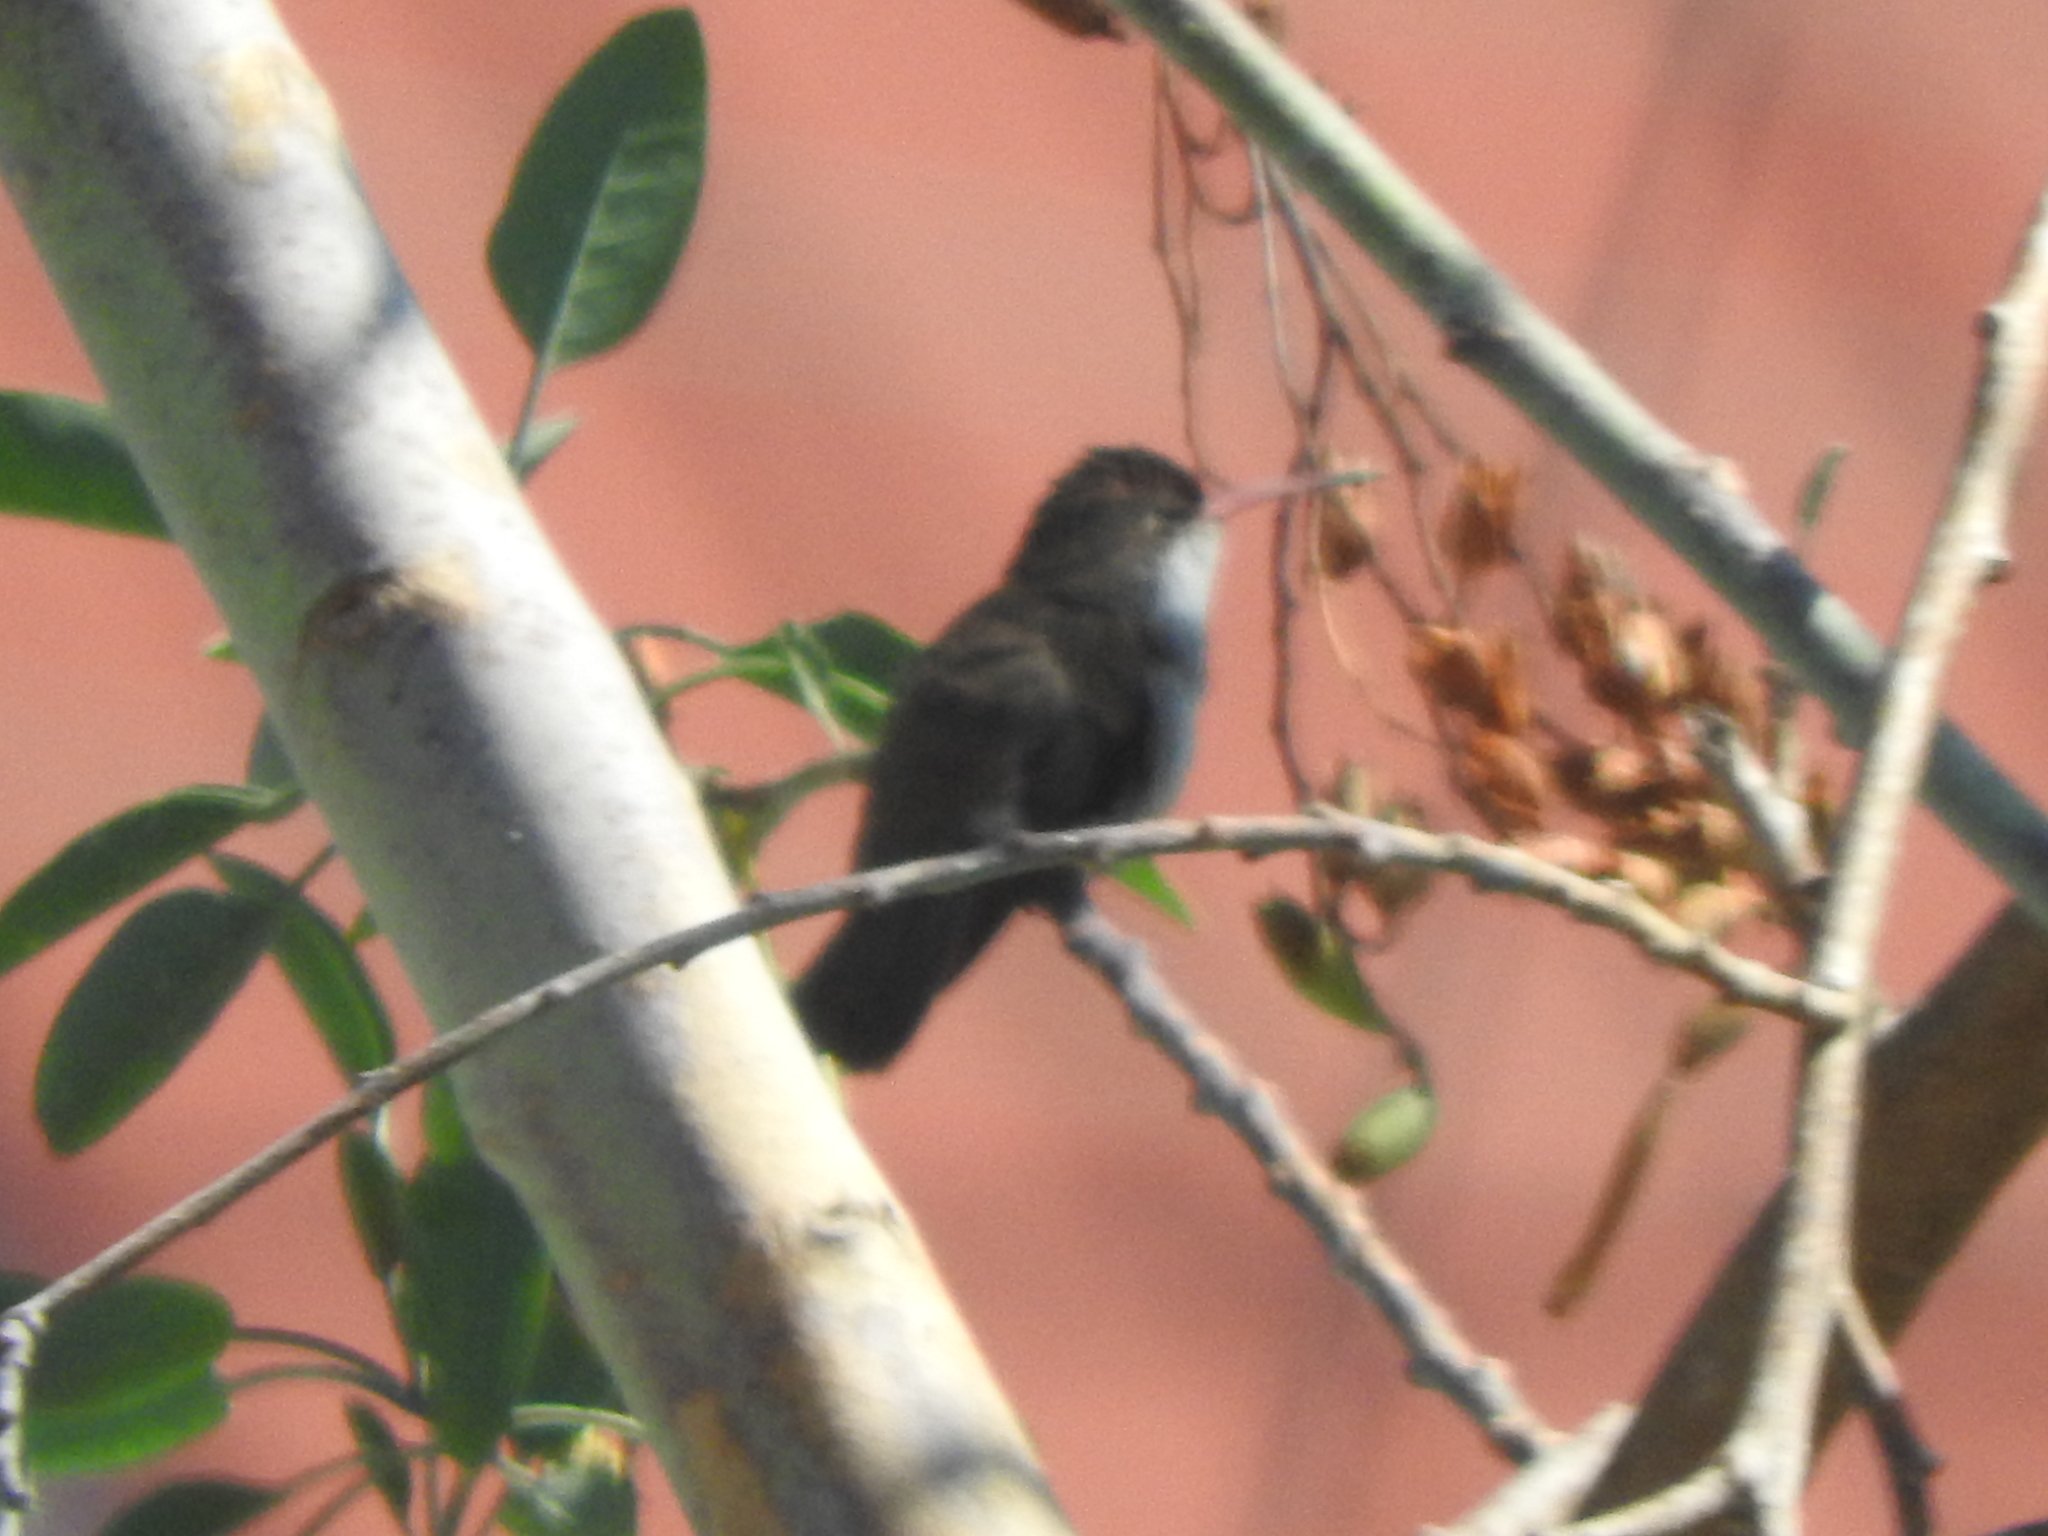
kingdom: Animalia
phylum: Chordata
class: Aves
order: Apodiformes
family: Trochilidae
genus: Leucolia
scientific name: Leucolia violiceps
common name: Violet-crowned hummingbird
